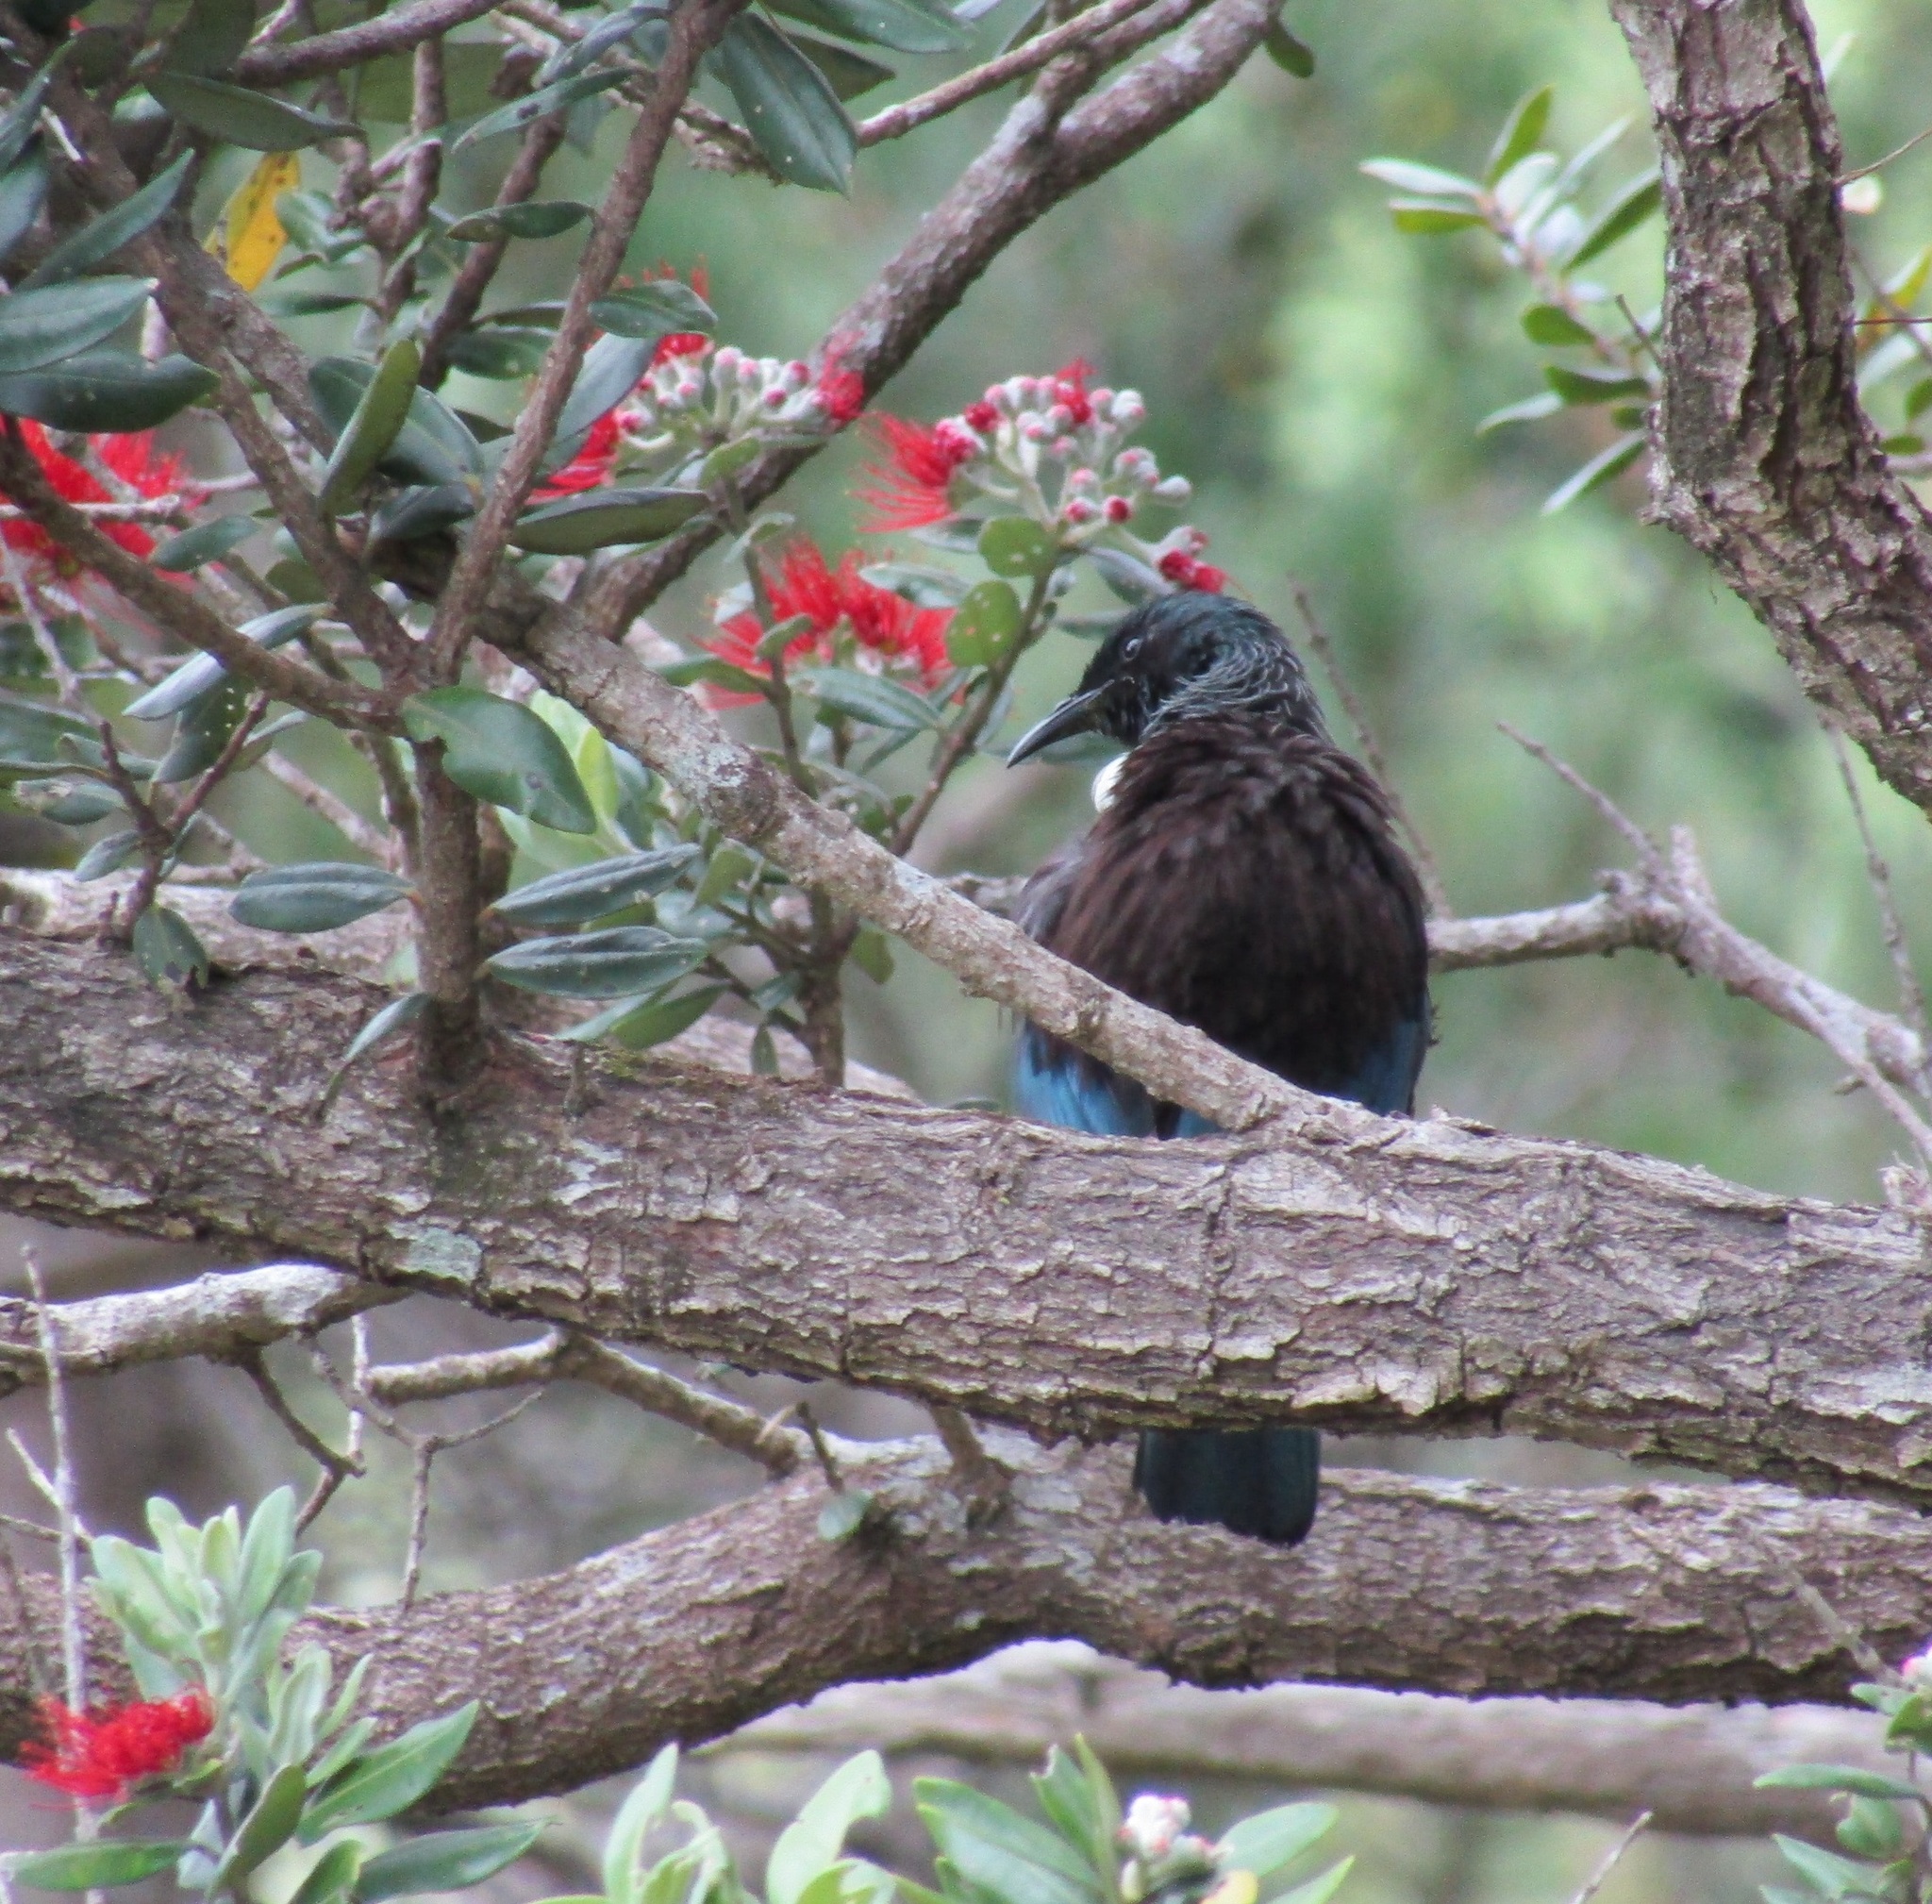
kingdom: Animalia
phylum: Chordata
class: Aves
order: Passeriformes
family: Meliphagidae
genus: Prosthemadera
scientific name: Prosthemadera novaeseelandiae
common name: Tui
